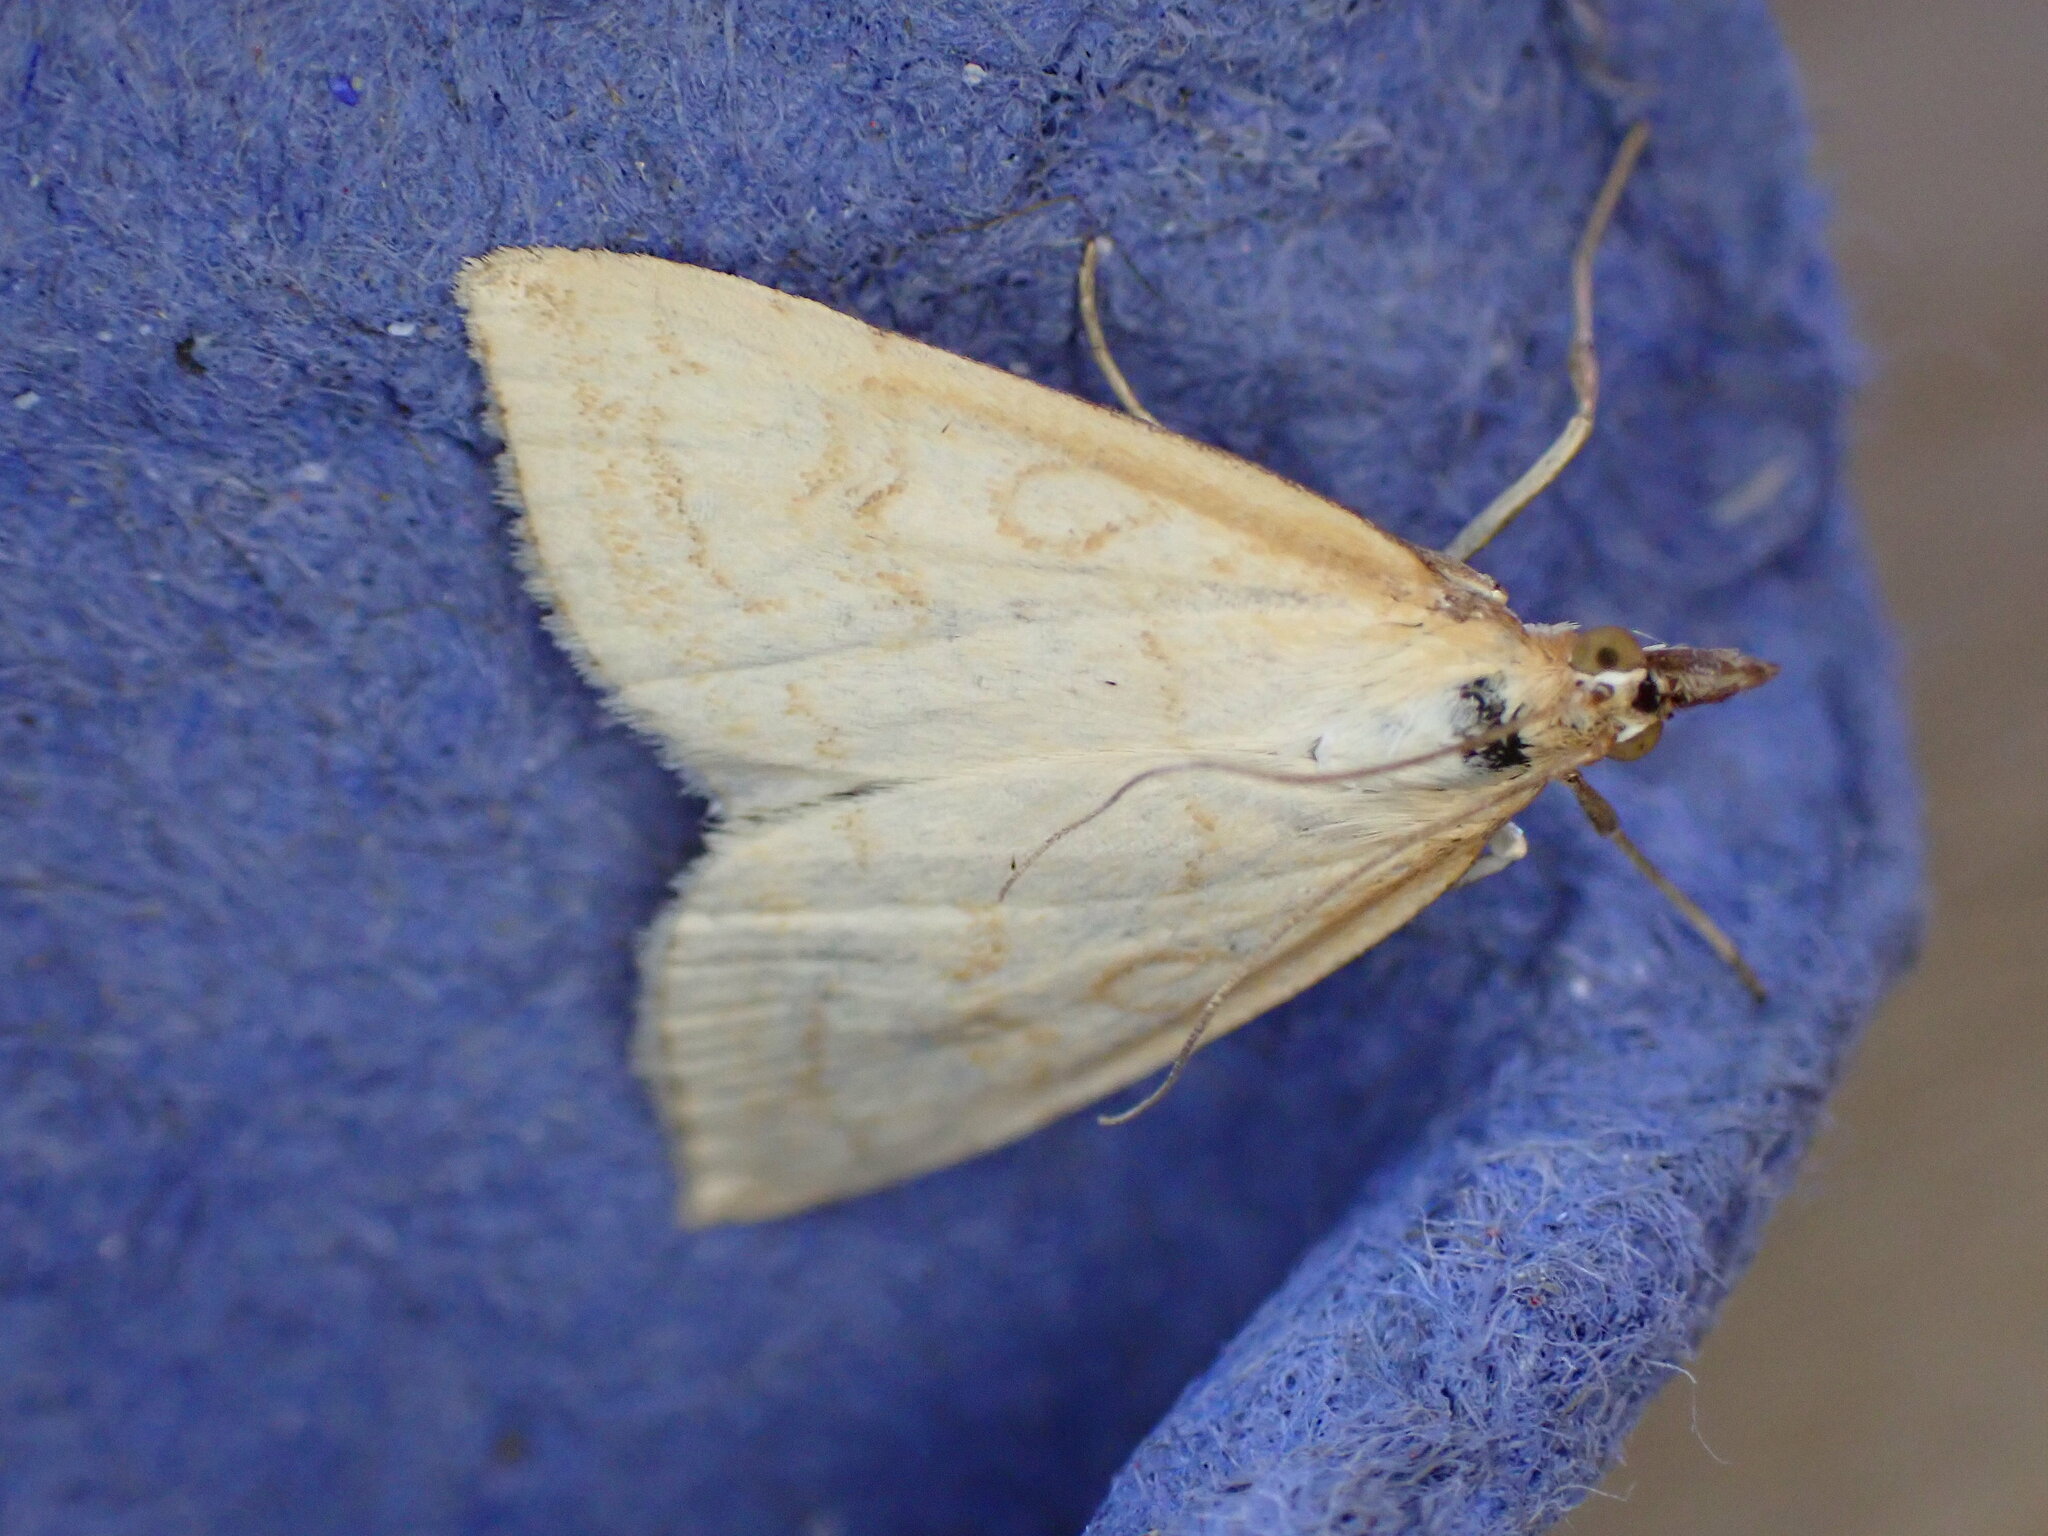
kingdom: Animalia
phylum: Arthropoda
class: Insecta
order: Lepidoptera
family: Crambidae
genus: Udea
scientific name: Udea lutealis
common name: Pale straw pearl
